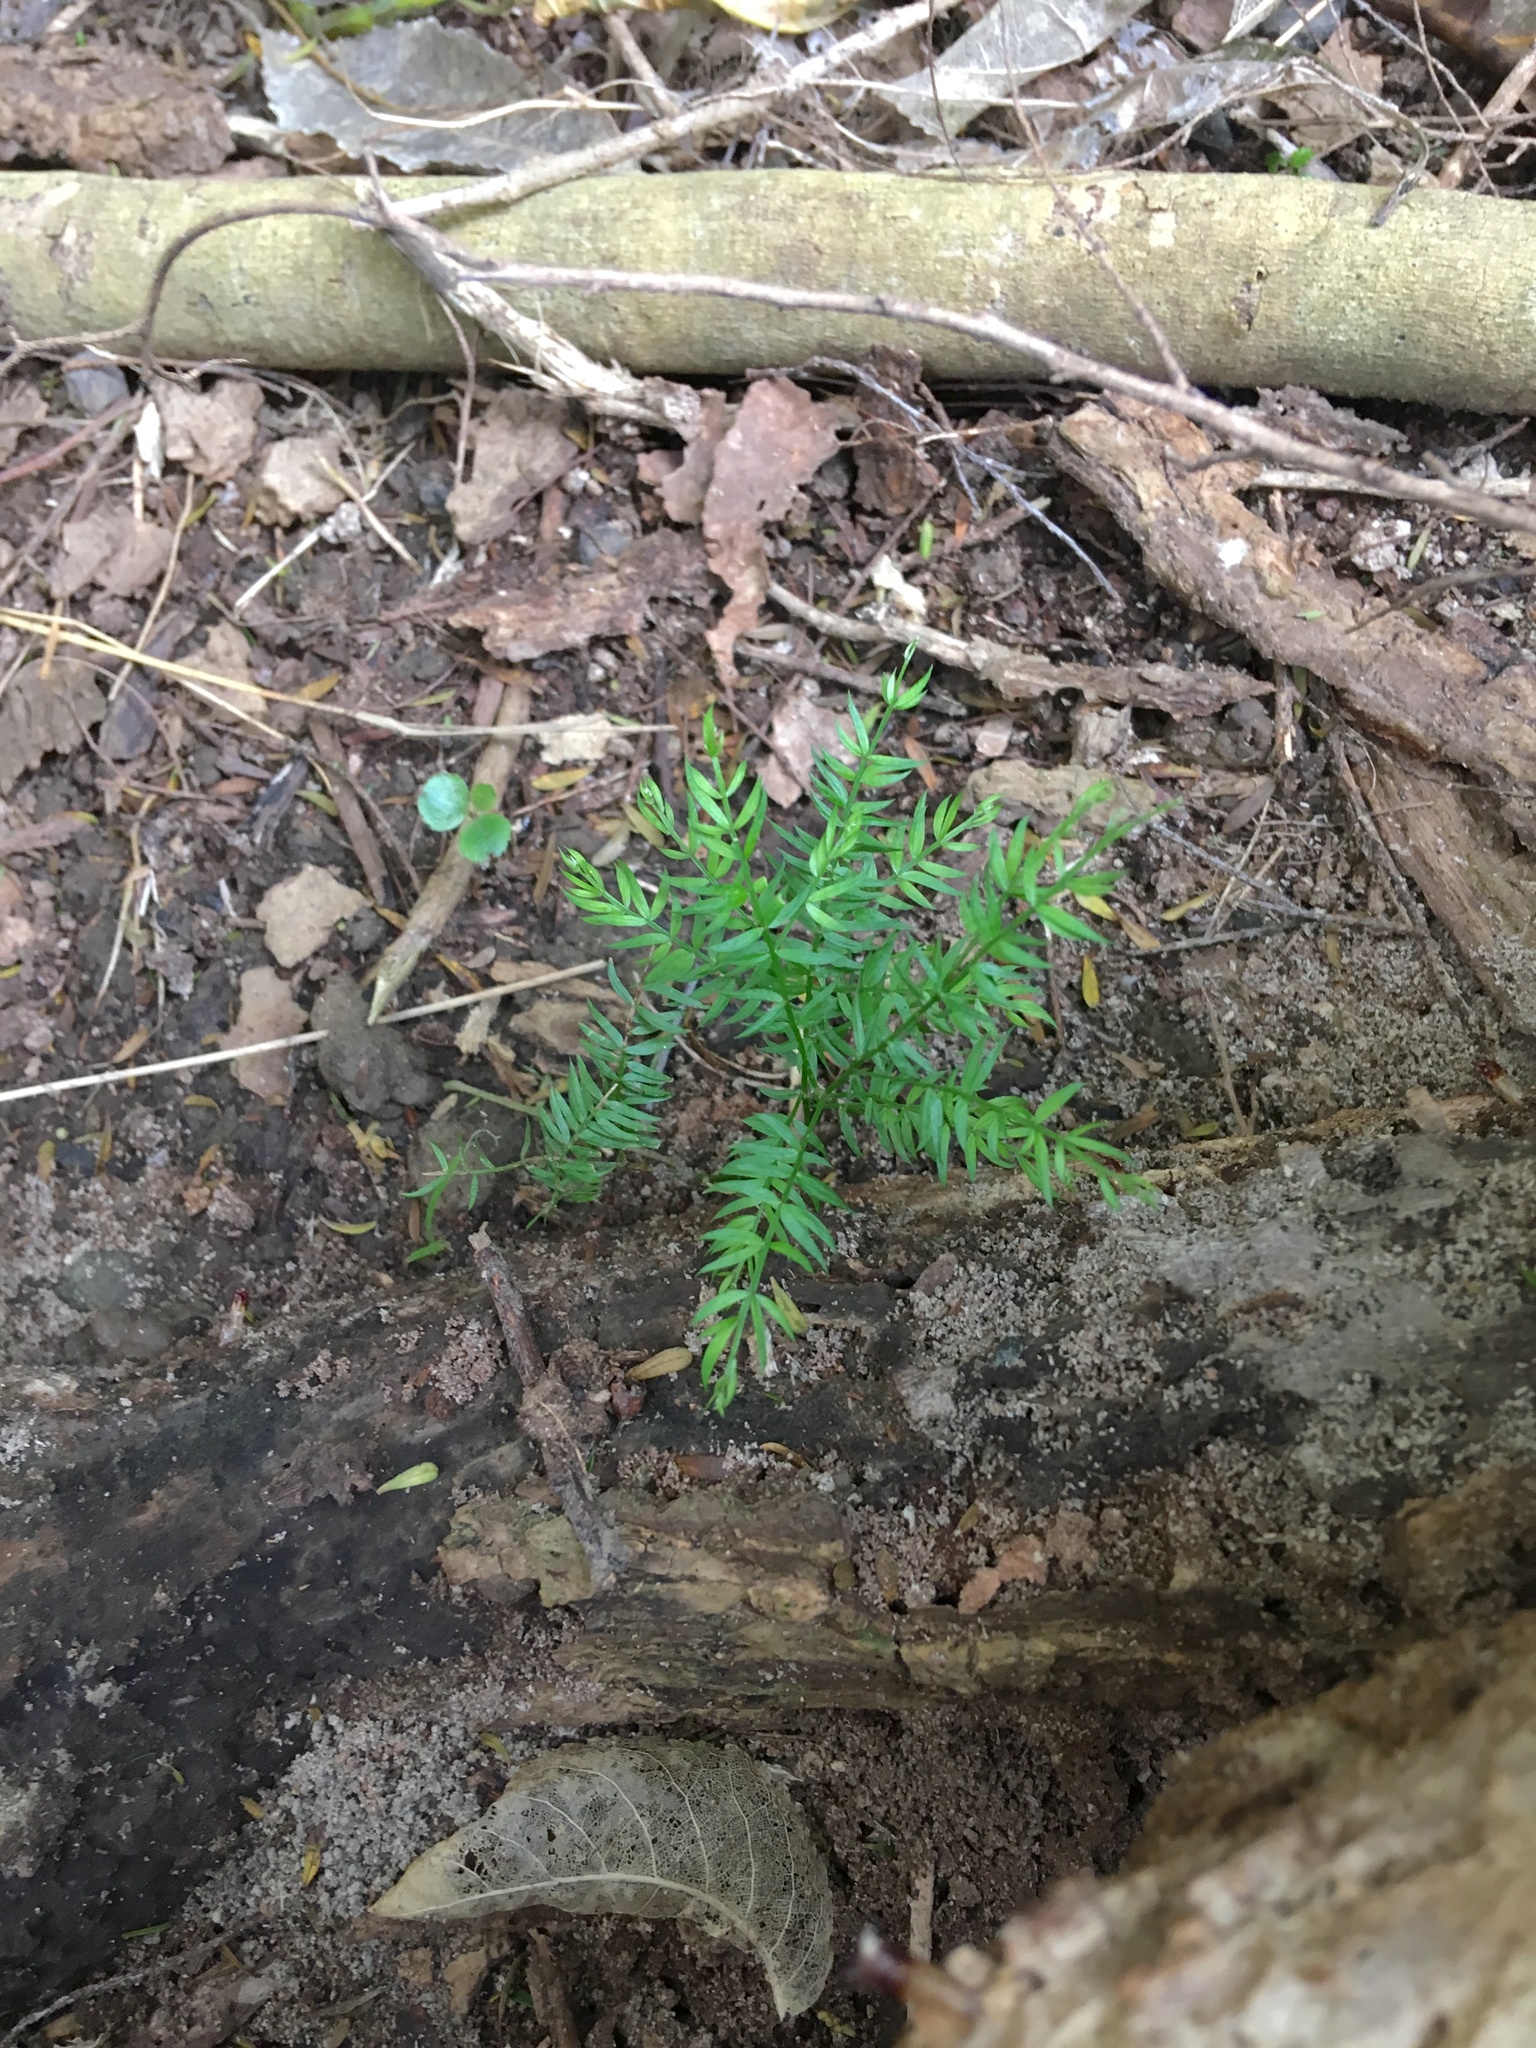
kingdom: Plantae
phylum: Tracheophyta
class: Liliopsida
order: Asparagales
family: Asparagaceae
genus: Asparagus
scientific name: Asparagus scandens
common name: Asparagus-fern
